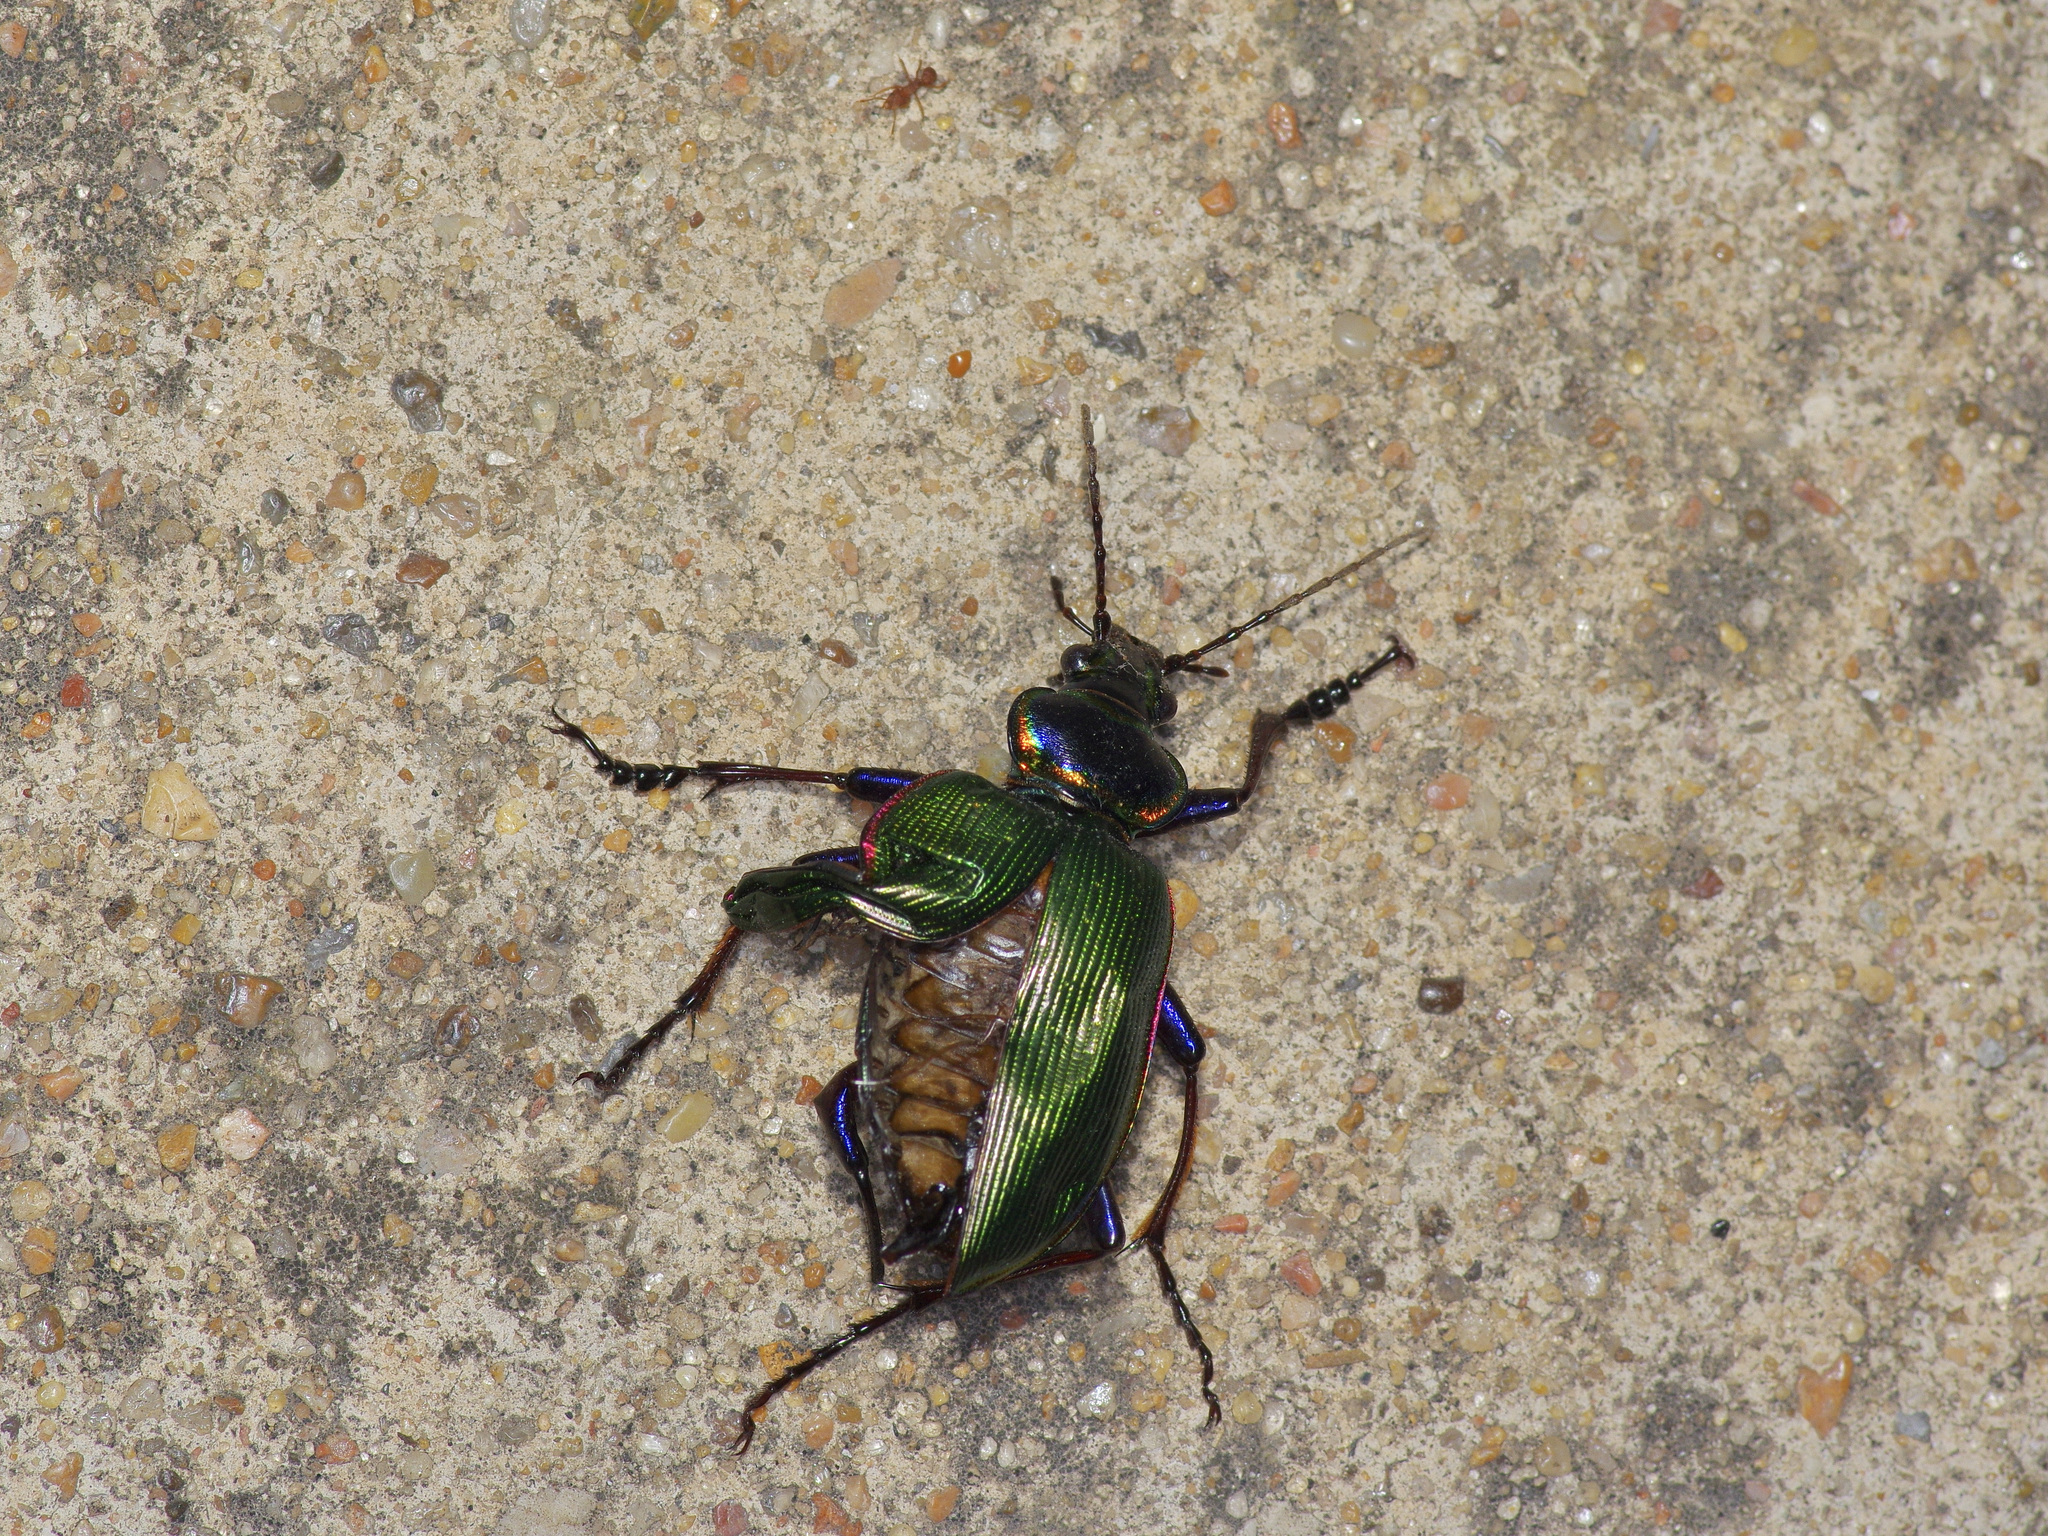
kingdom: Animalia
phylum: Arthropoda
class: Insecta
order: Coleoptera
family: Carabidae
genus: Calosoma
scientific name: Calosoma wilcoxi
